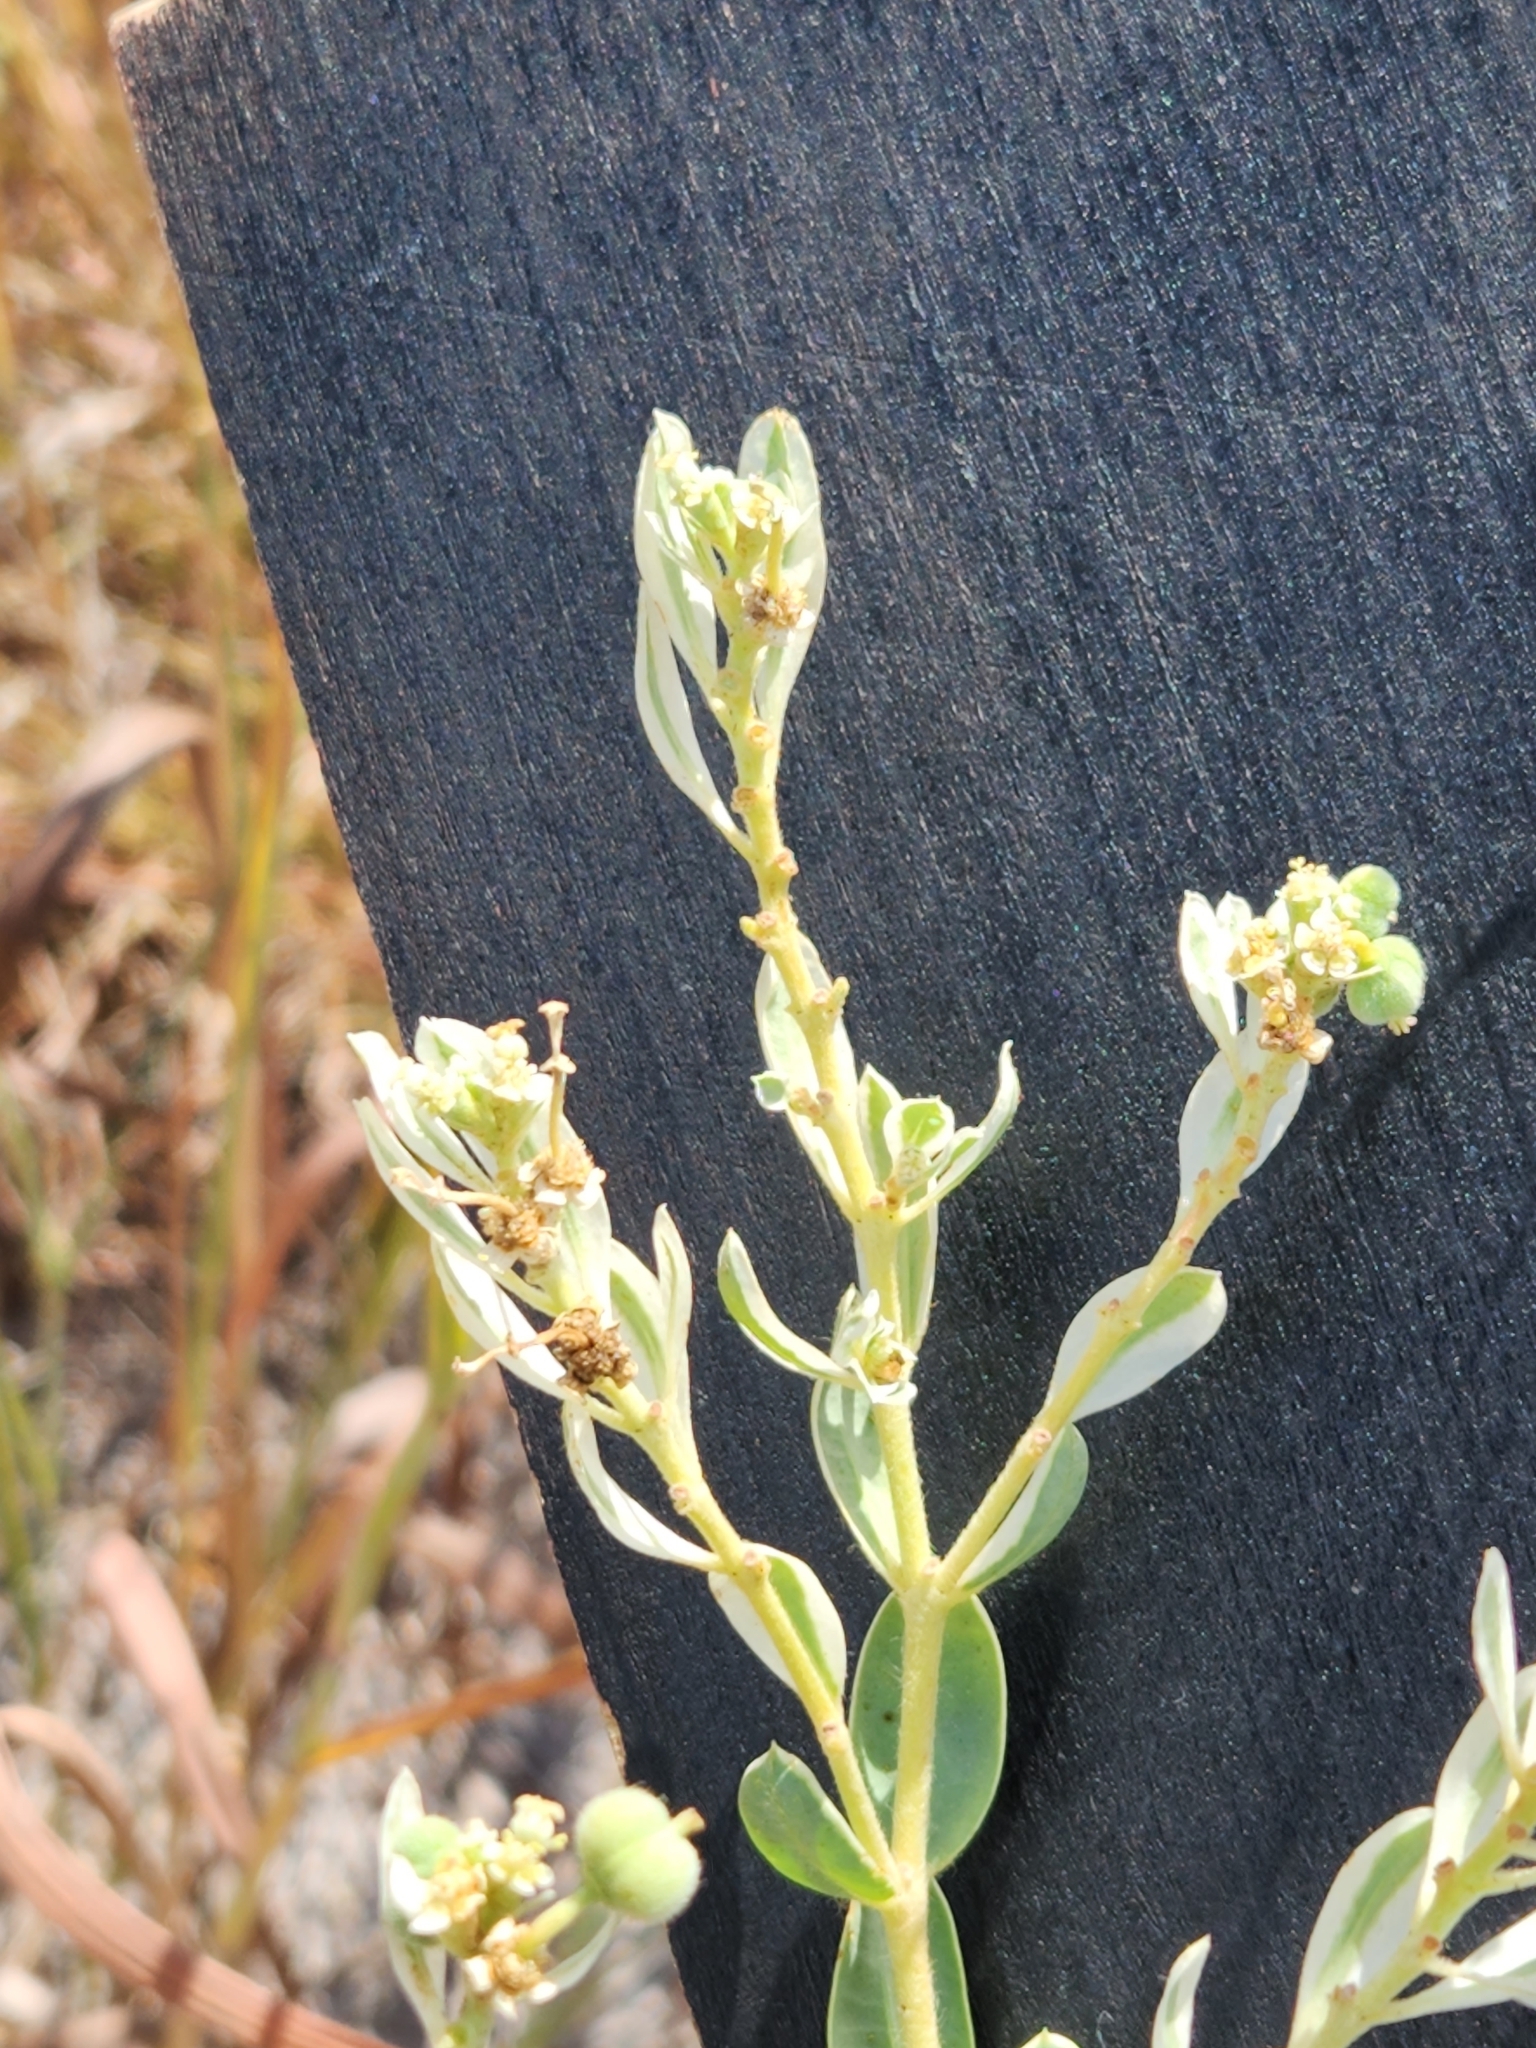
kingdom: Plantae
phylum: Tracheophyta
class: Magnoliopsida
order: Malpighiales
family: Euphorbiaceae
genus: Euphorbia
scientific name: Euphorbia marginata
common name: Ghostweed
